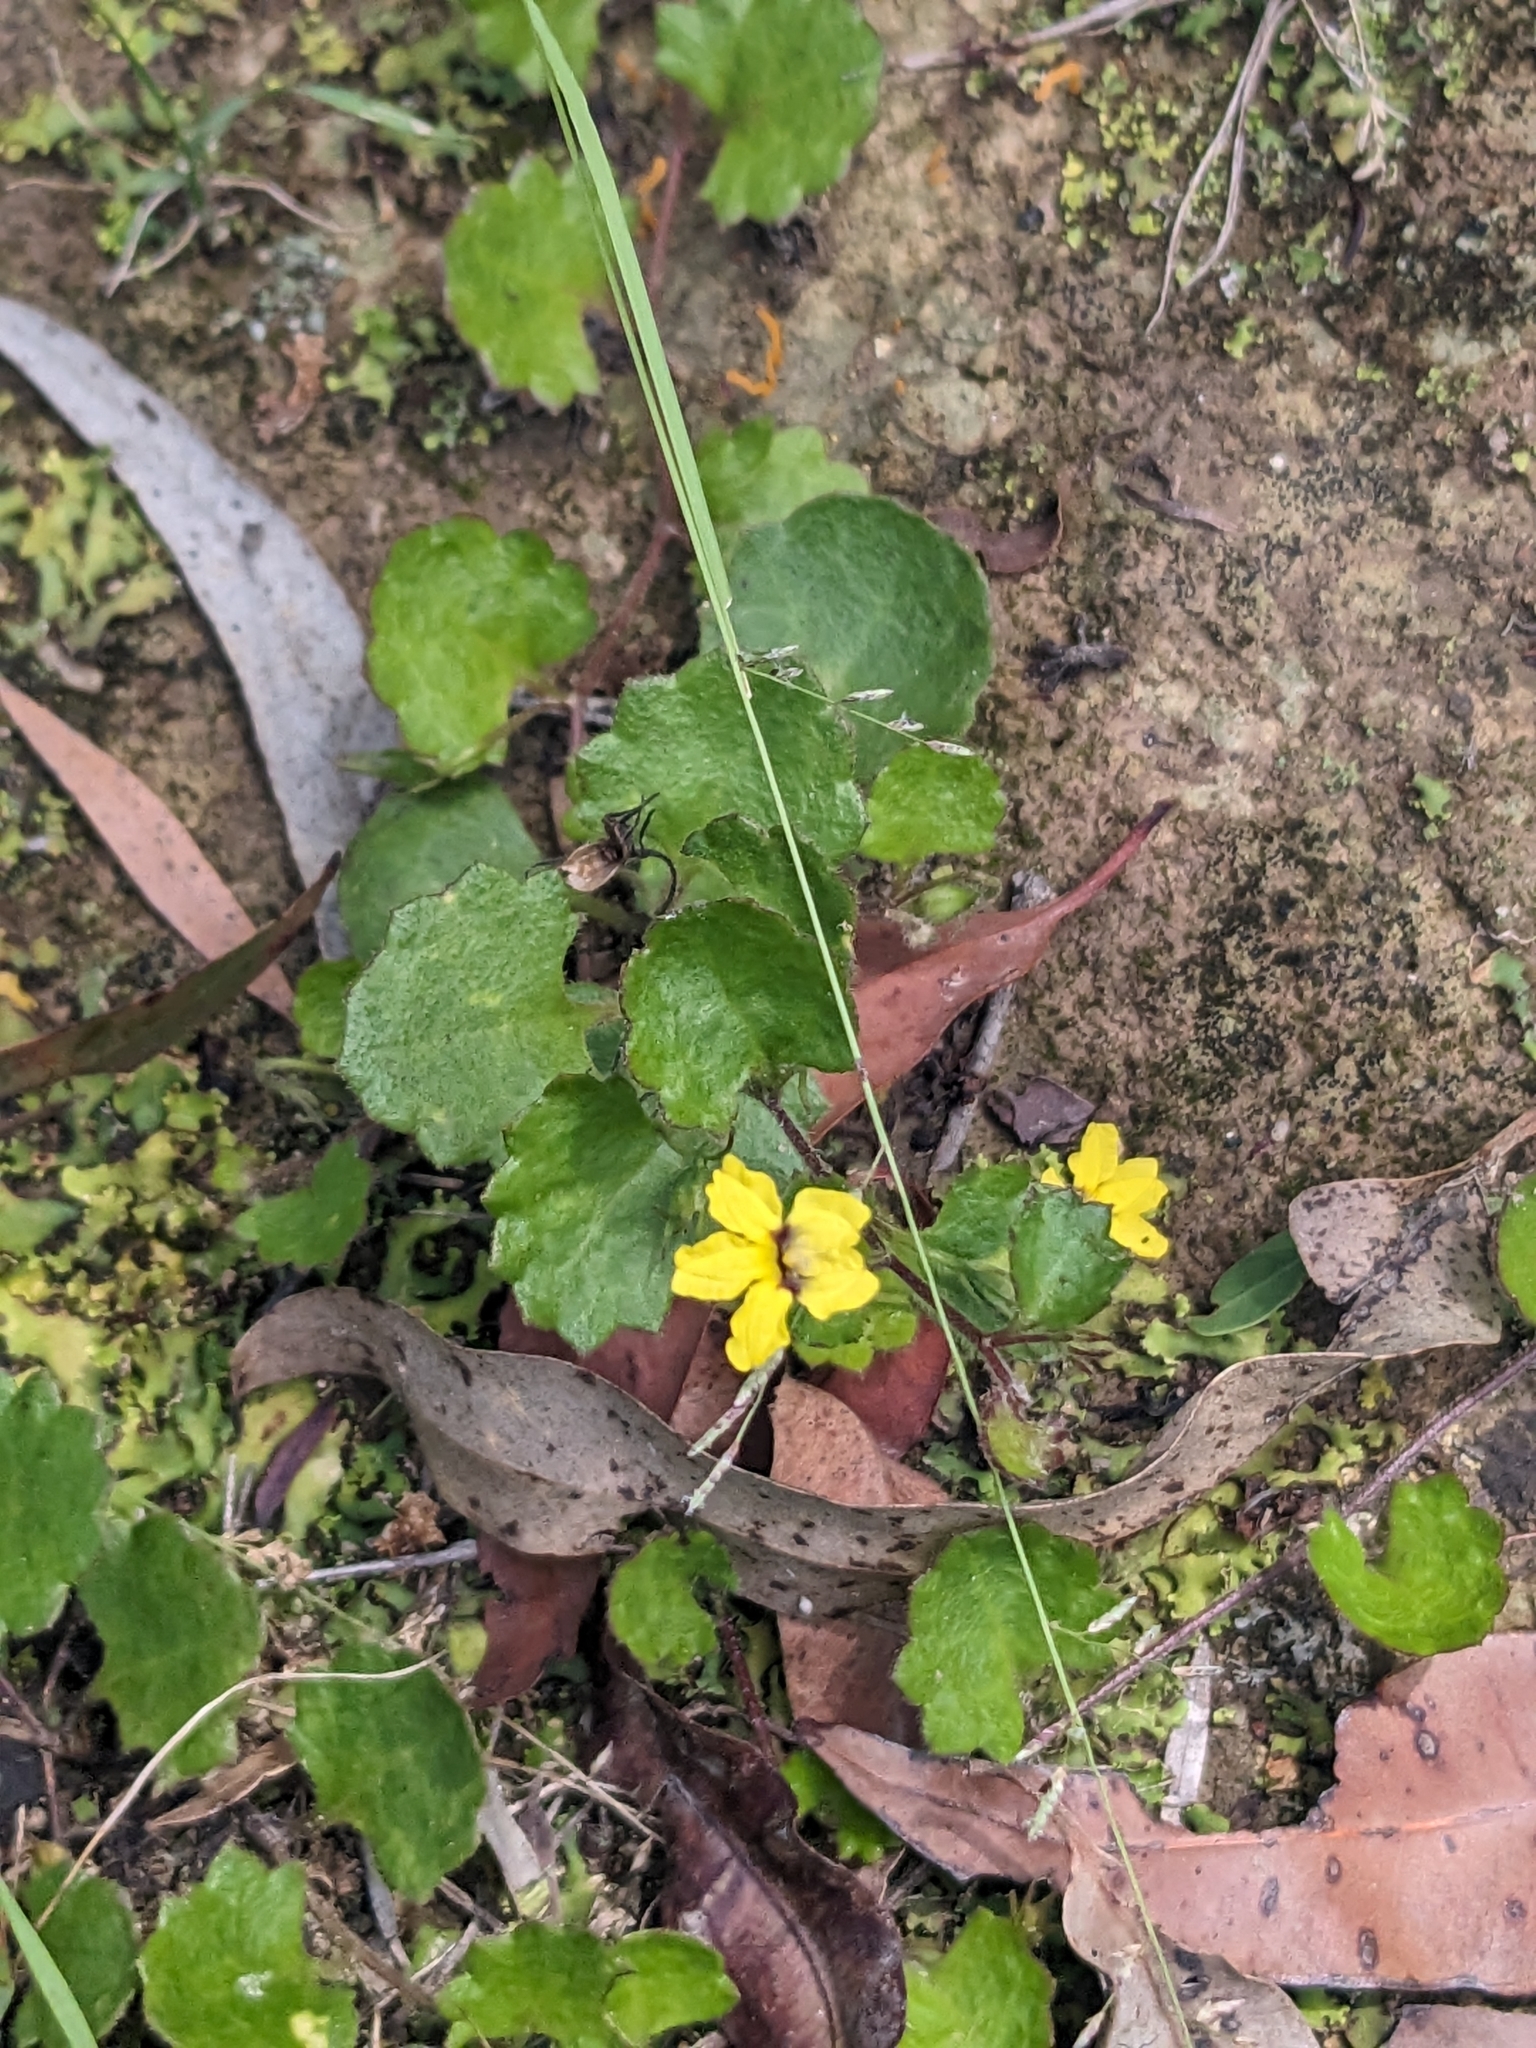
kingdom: Plantae
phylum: Tracheophyta
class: Magnoliopsida
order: Asterales
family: Goodeniaceae
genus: Goodenia
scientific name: Goodenia rotundifolia
